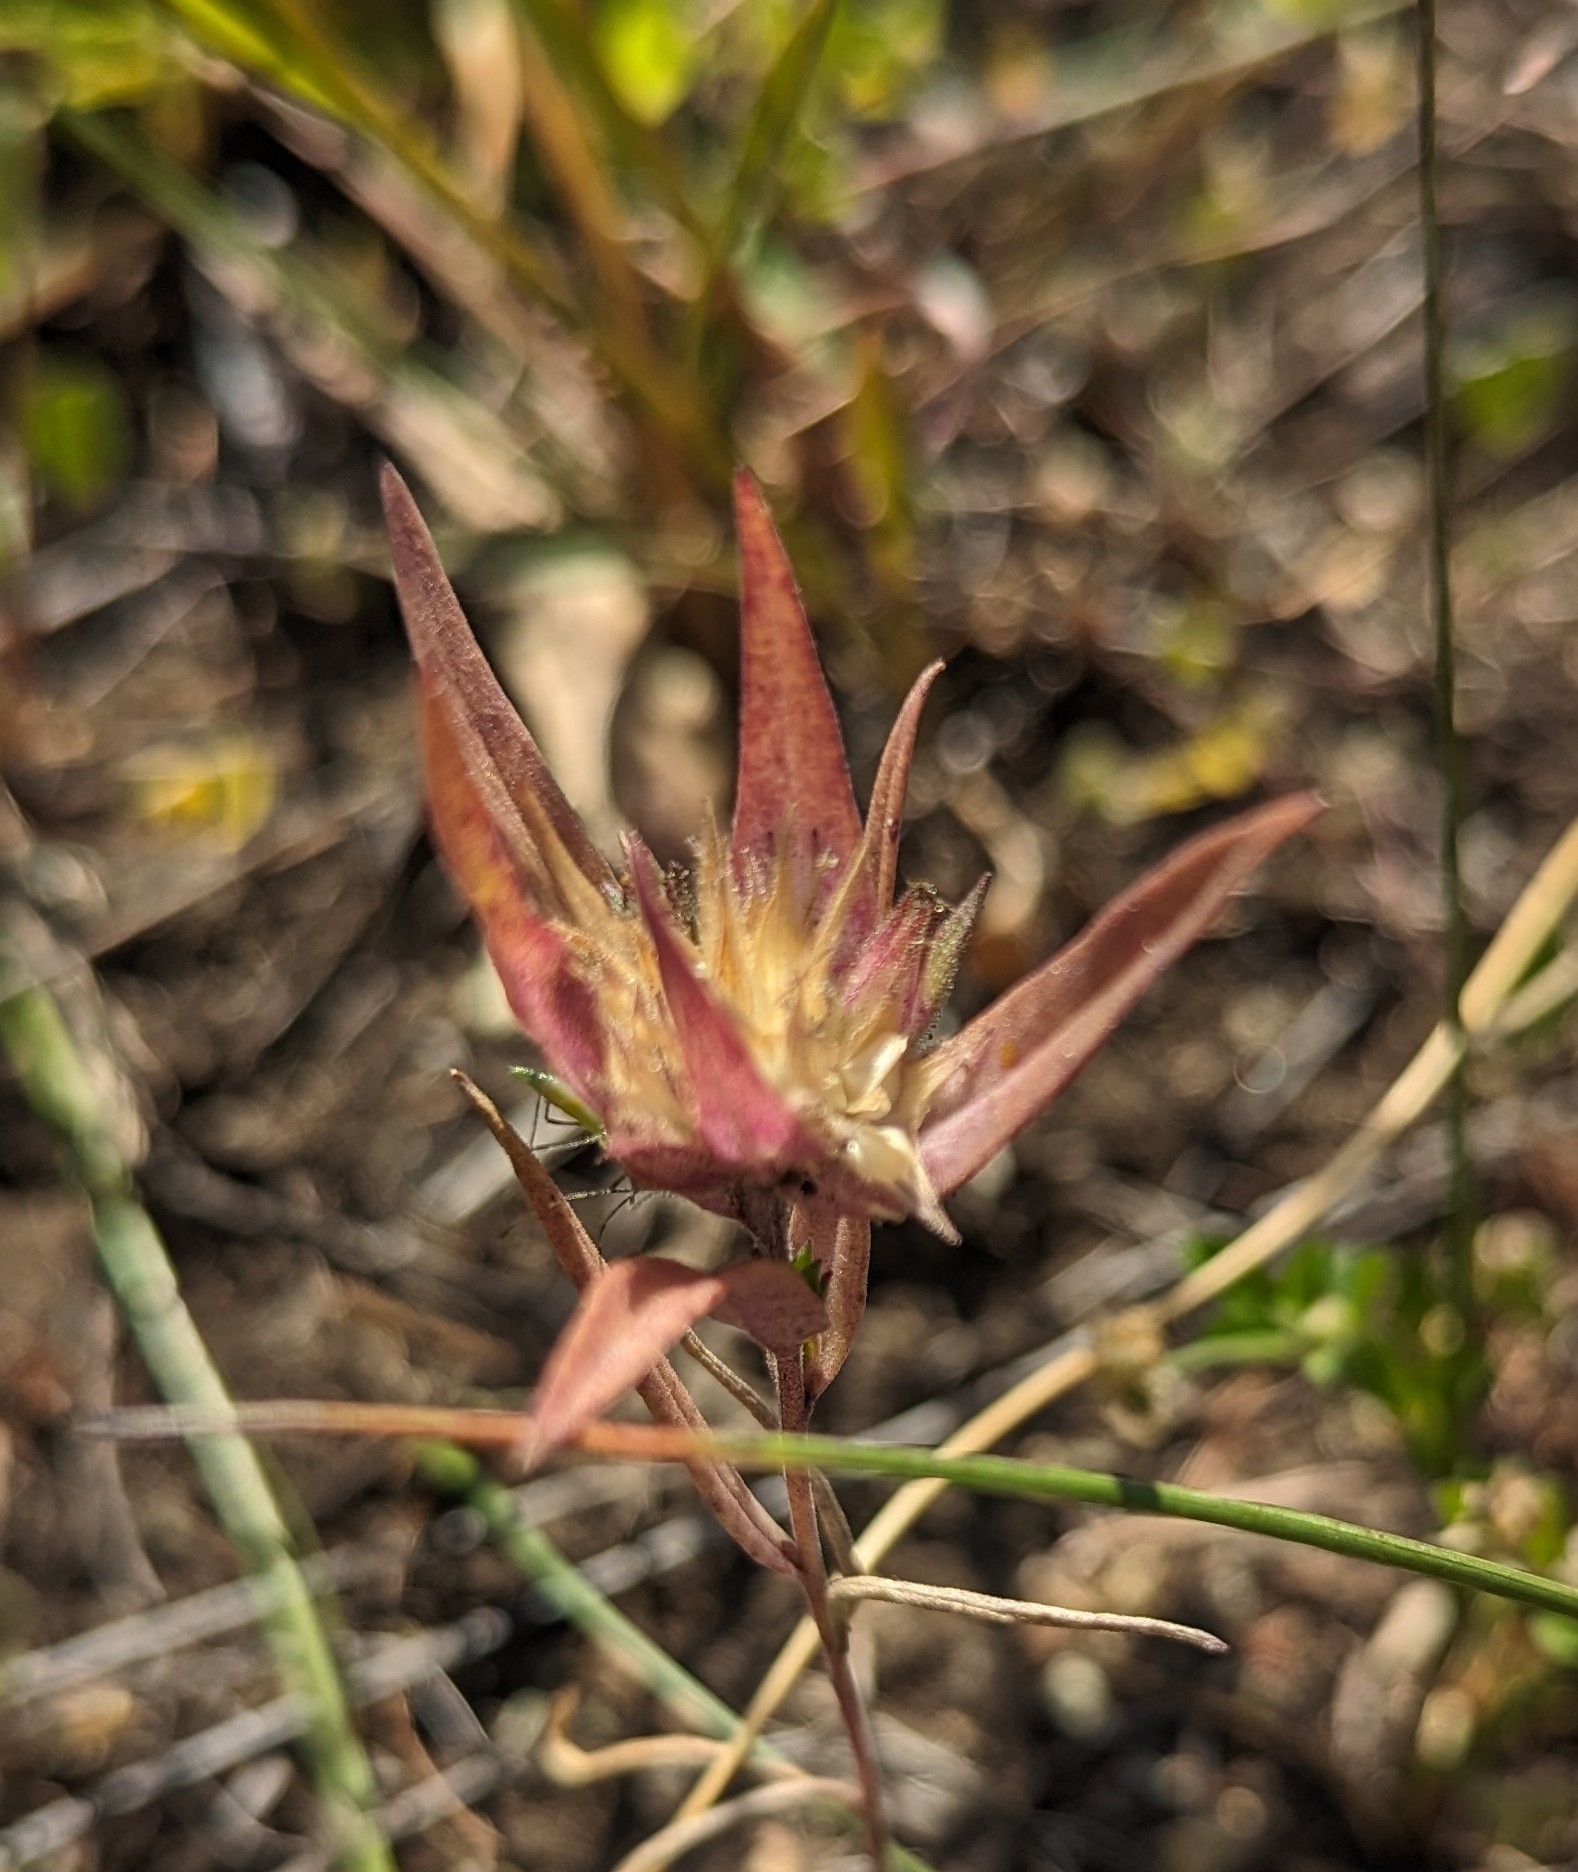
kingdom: Plantae
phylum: Tracheophyta
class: Magnoliopsida
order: Ericales
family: Polemoniaceae
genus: Collomia
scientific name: Collomia linearis
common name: Tiny trumpet
